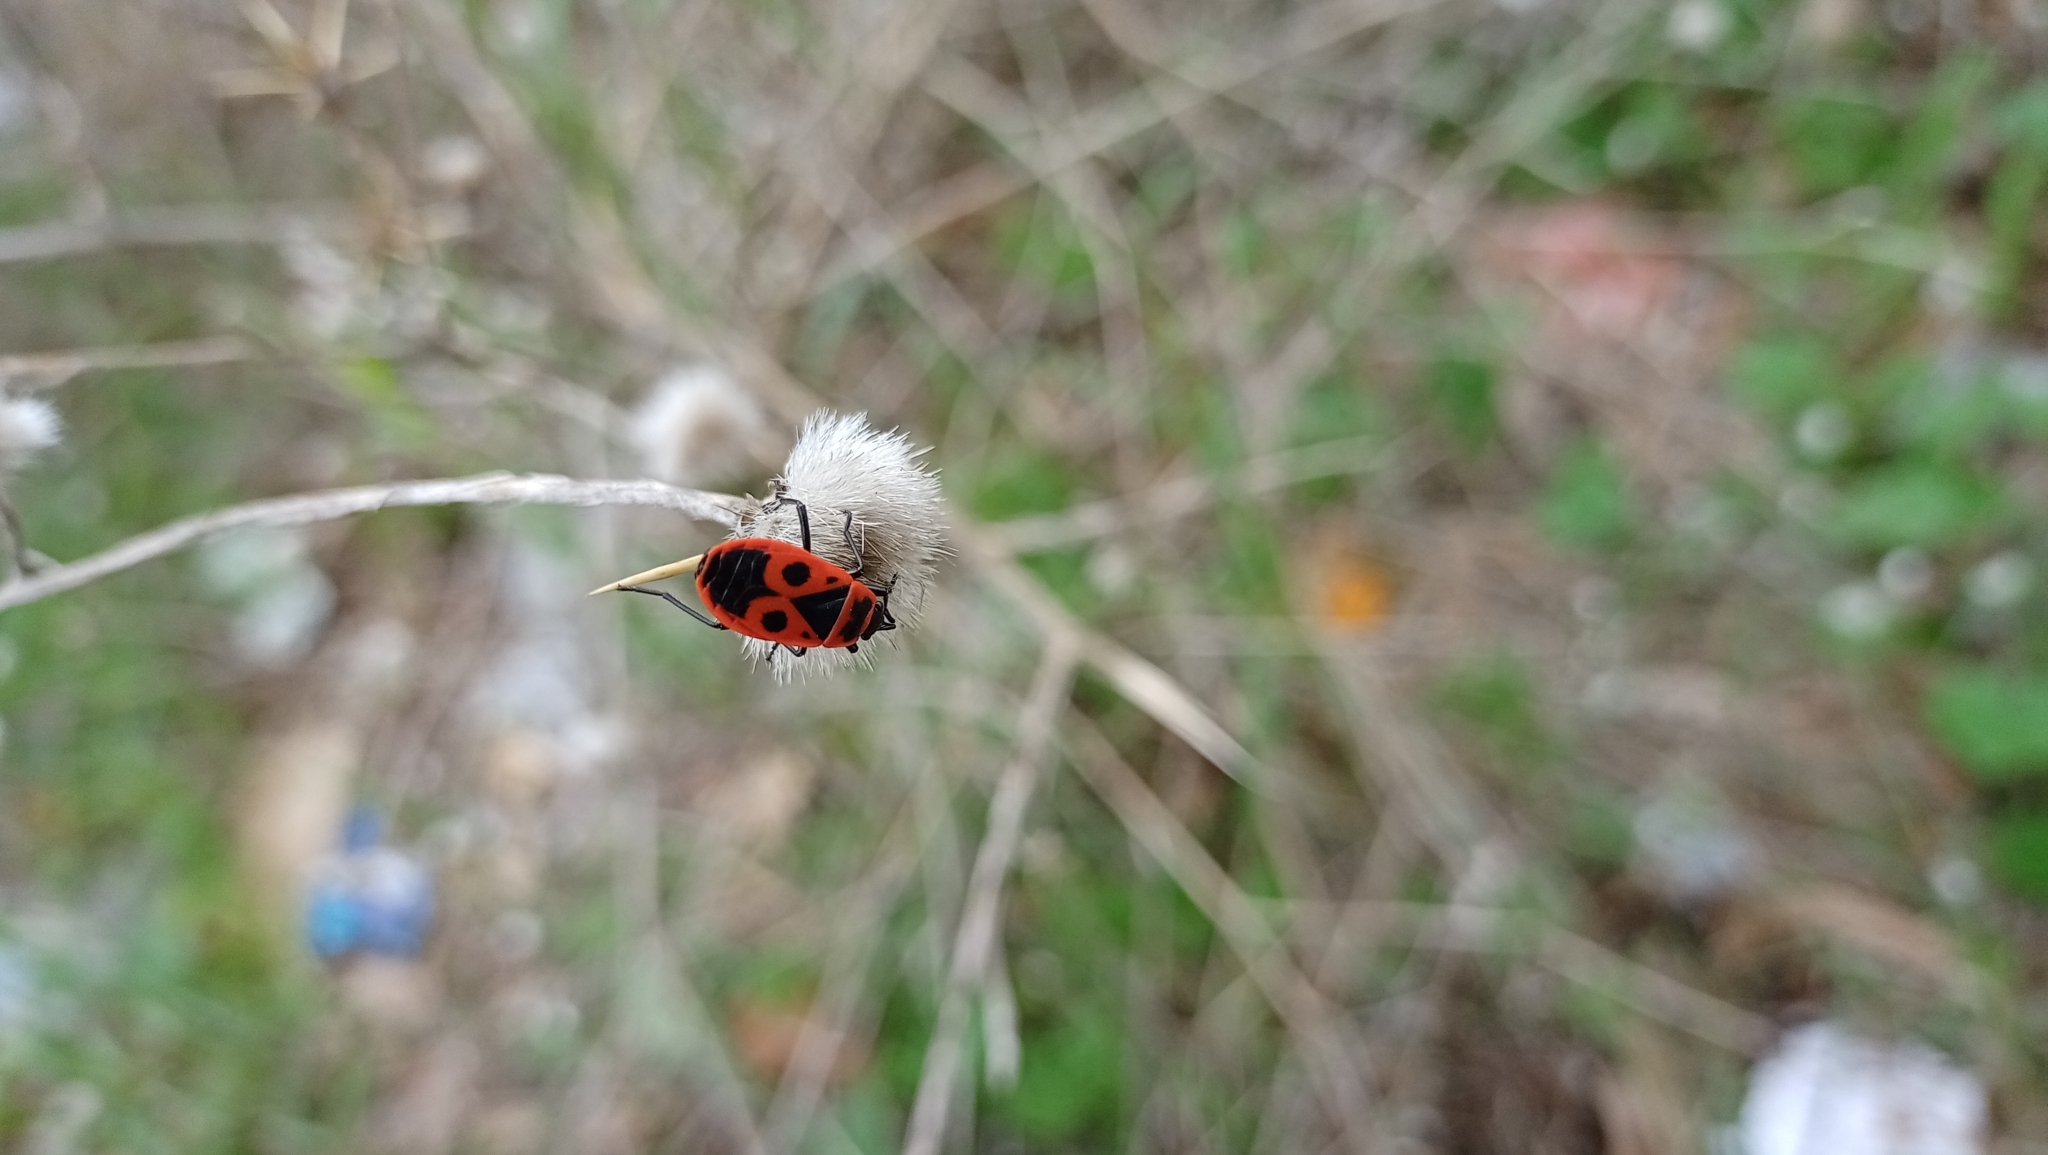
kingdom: Animalia
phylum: Arthropoda
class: Insecta
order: Hemiptera
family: Pyrrhocoridae
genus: Pyrrhocoris
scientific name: Pyrrhocoris apterus
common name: Firebug
